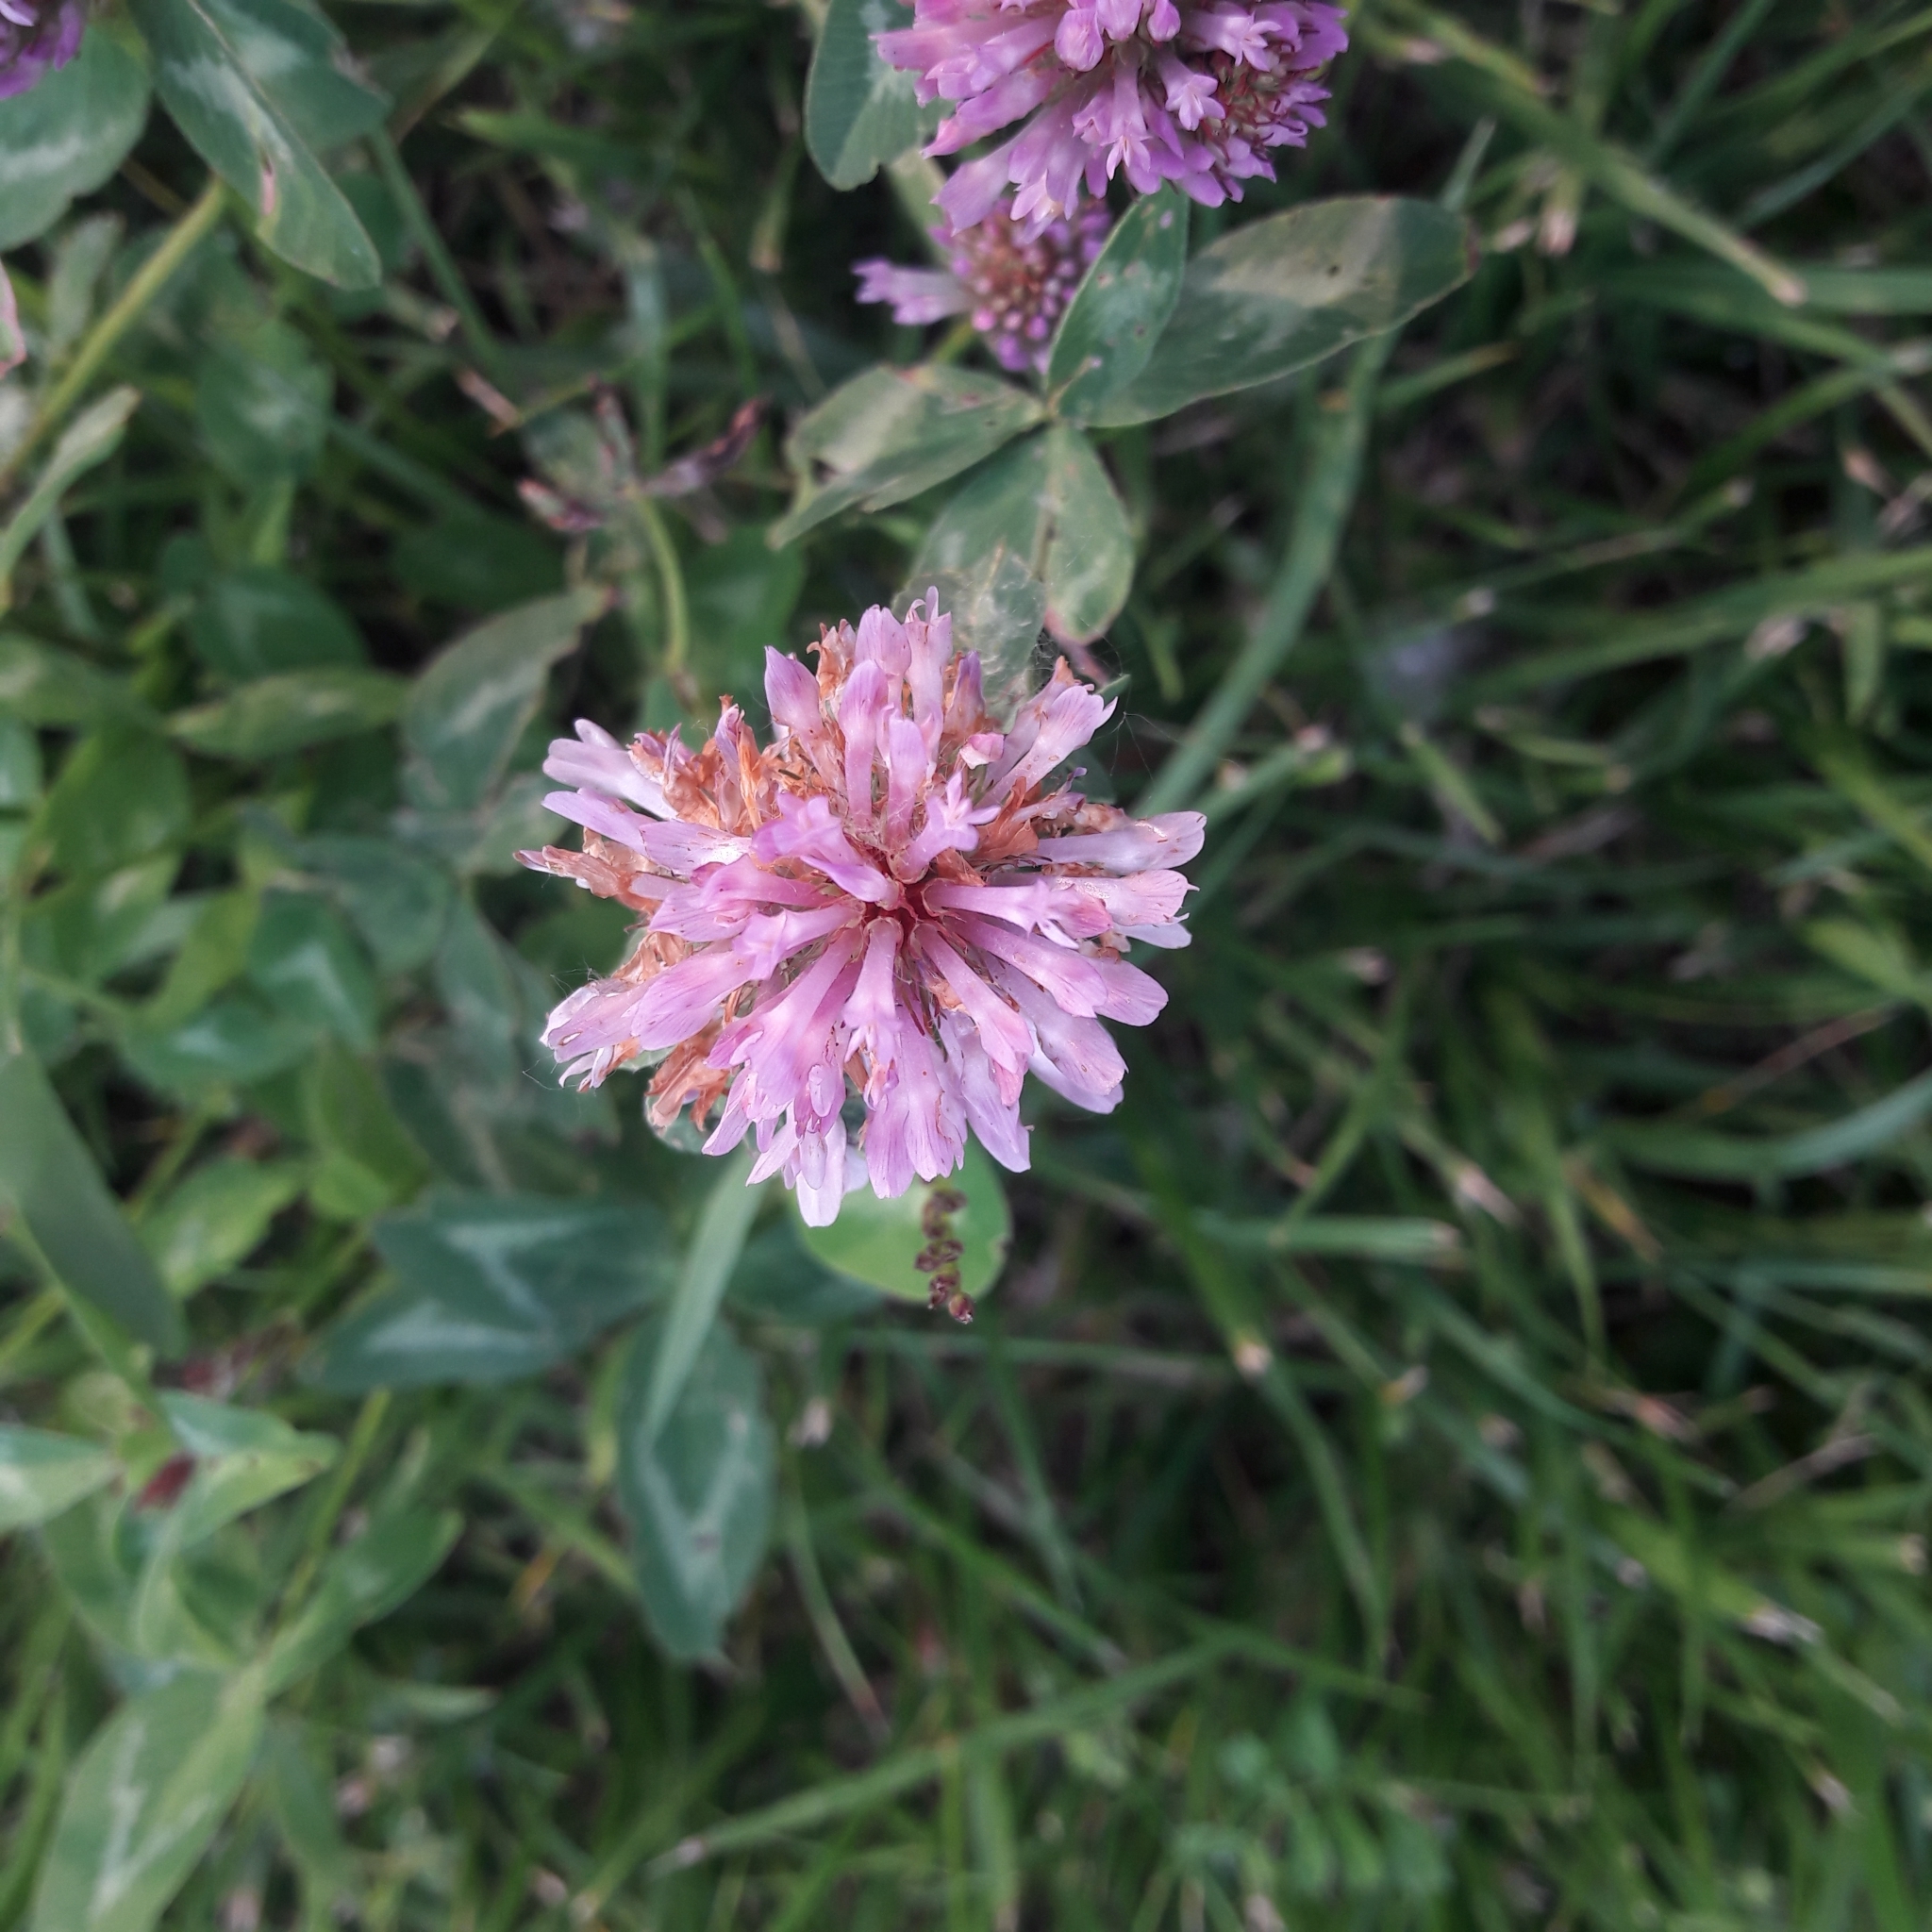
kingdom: Plantae
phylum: Tracheophyta
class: Magnoliopsida
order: Fabales
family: Fabaceae
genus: Trifolium
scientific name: Trifolium pratense
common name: Red clover
